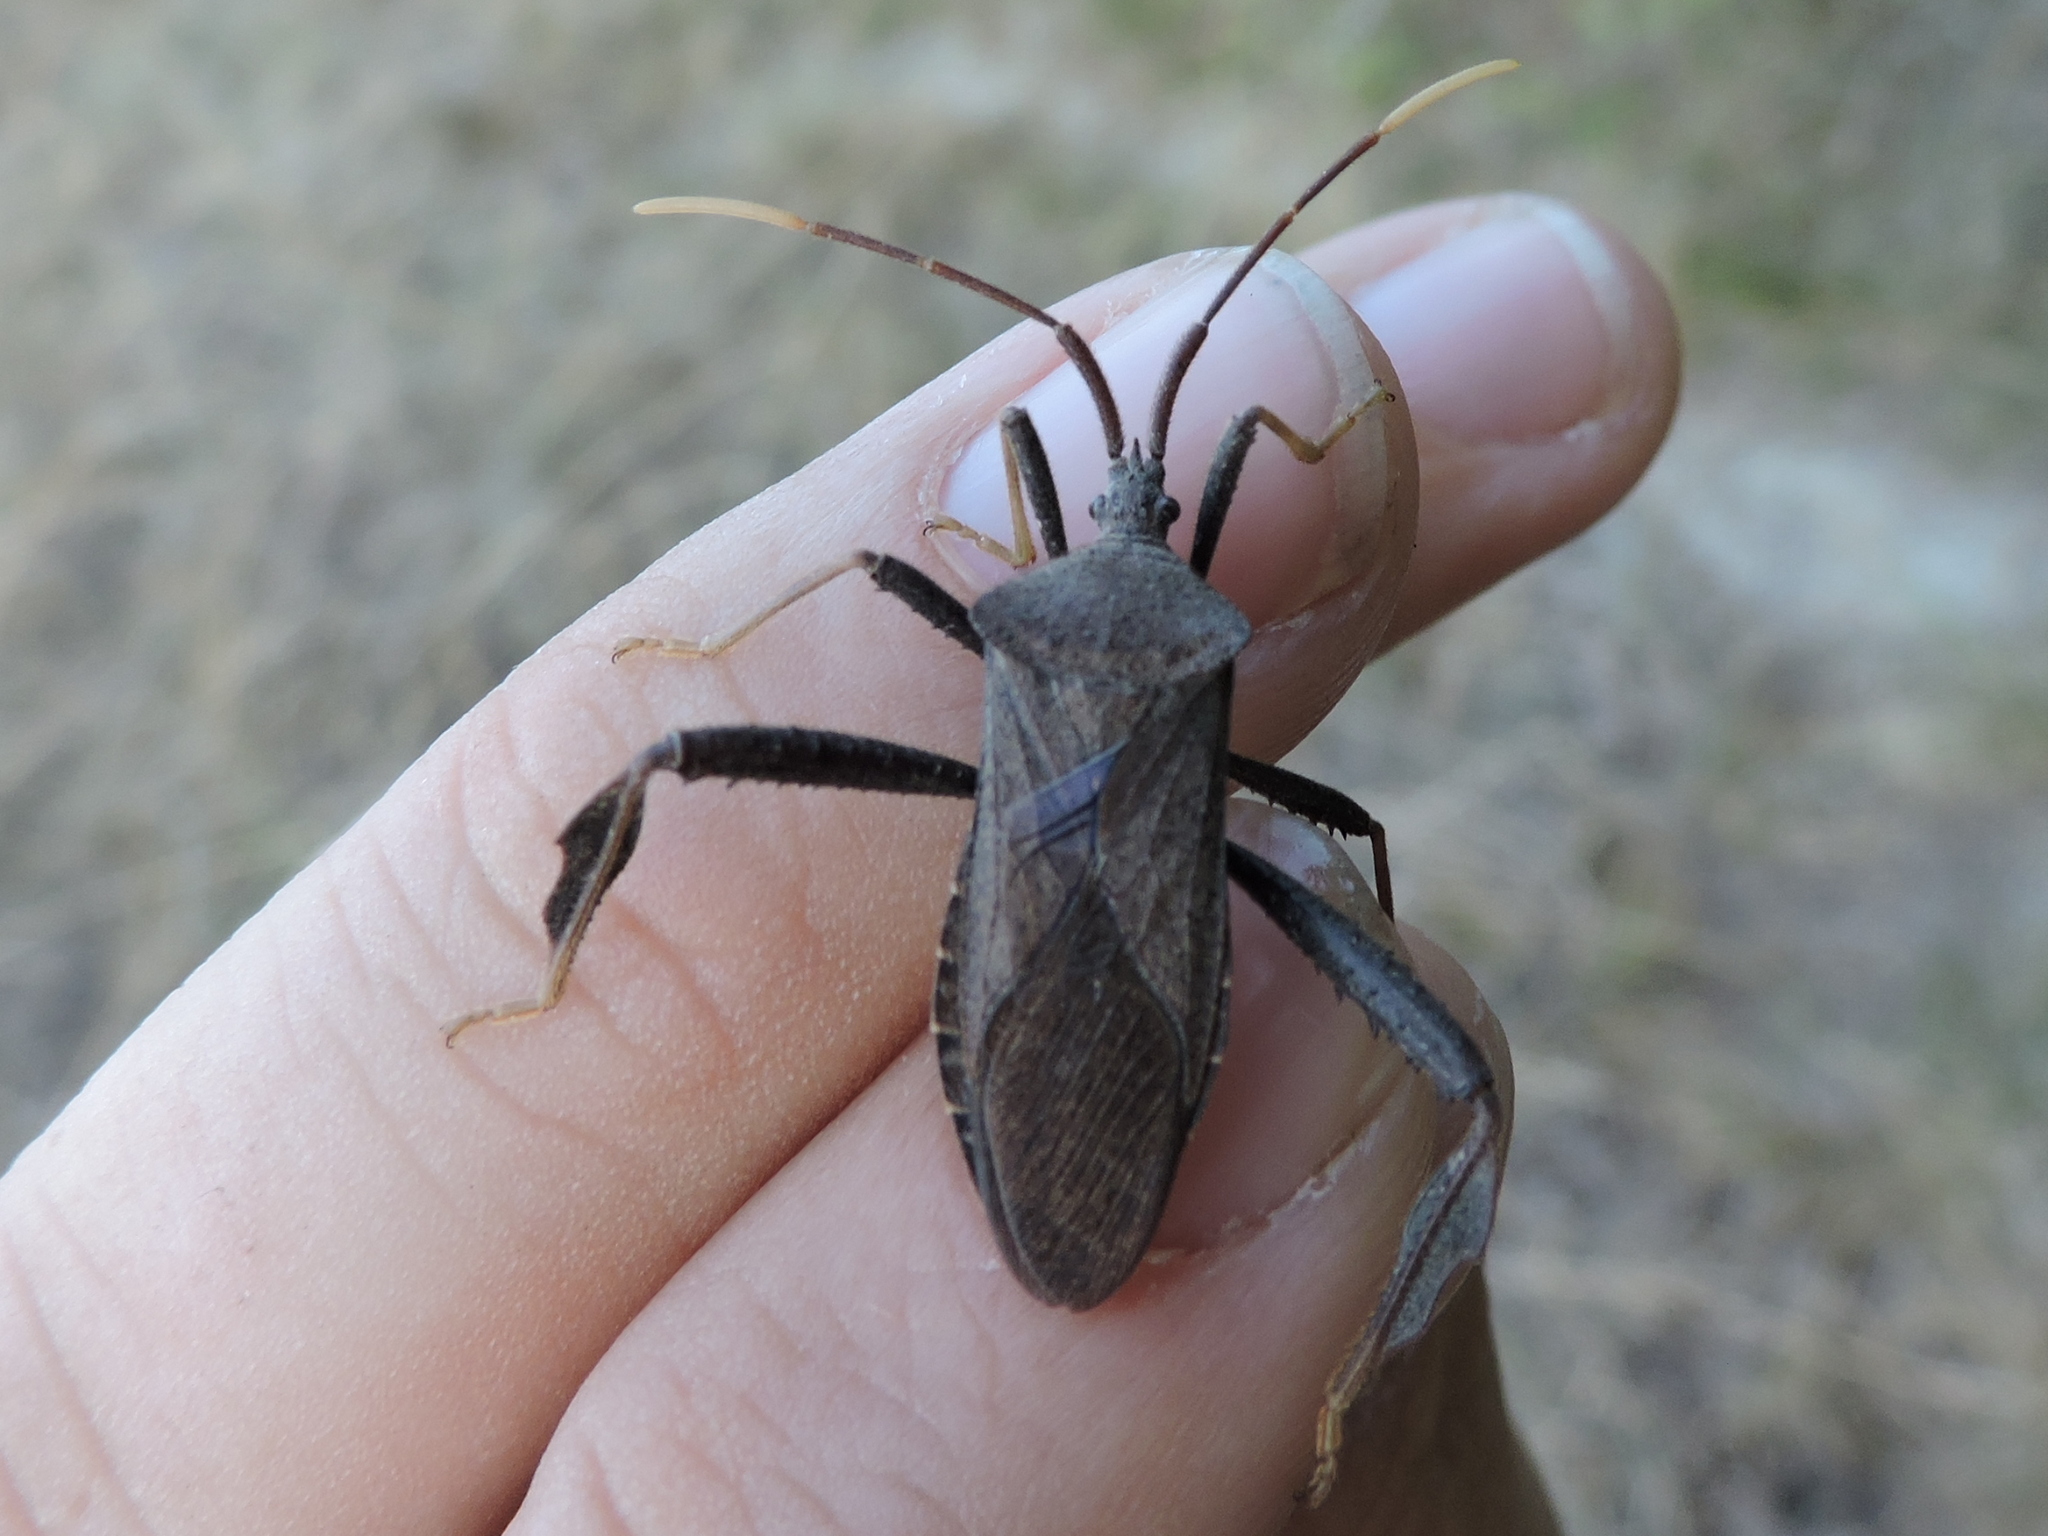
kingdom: Animalia
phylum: Arthropoda
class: Insecta
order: Hemiptera
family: Coreidae
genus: Acanthocephala
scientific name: Acanthocephala terminalis
